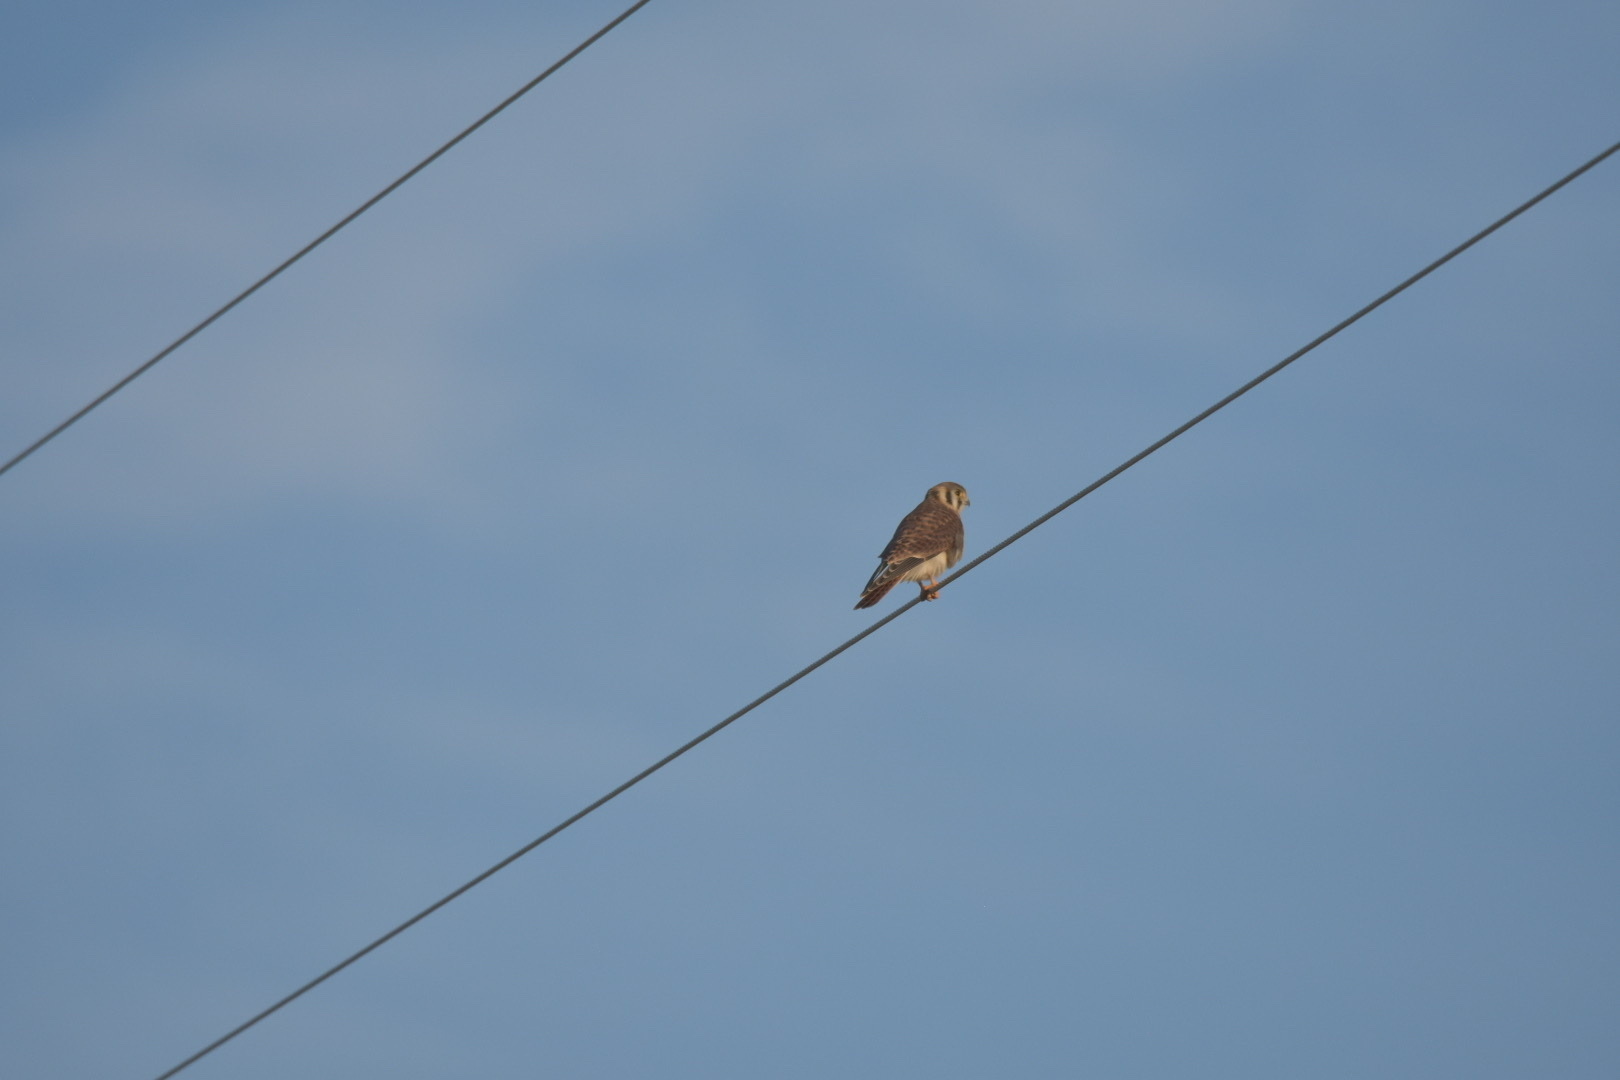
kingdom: Animalia
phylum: Chordata
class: Aves
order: Falconiformes
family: Falconidae
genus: Falco
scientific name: Falco sparverius
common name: American kestrel
